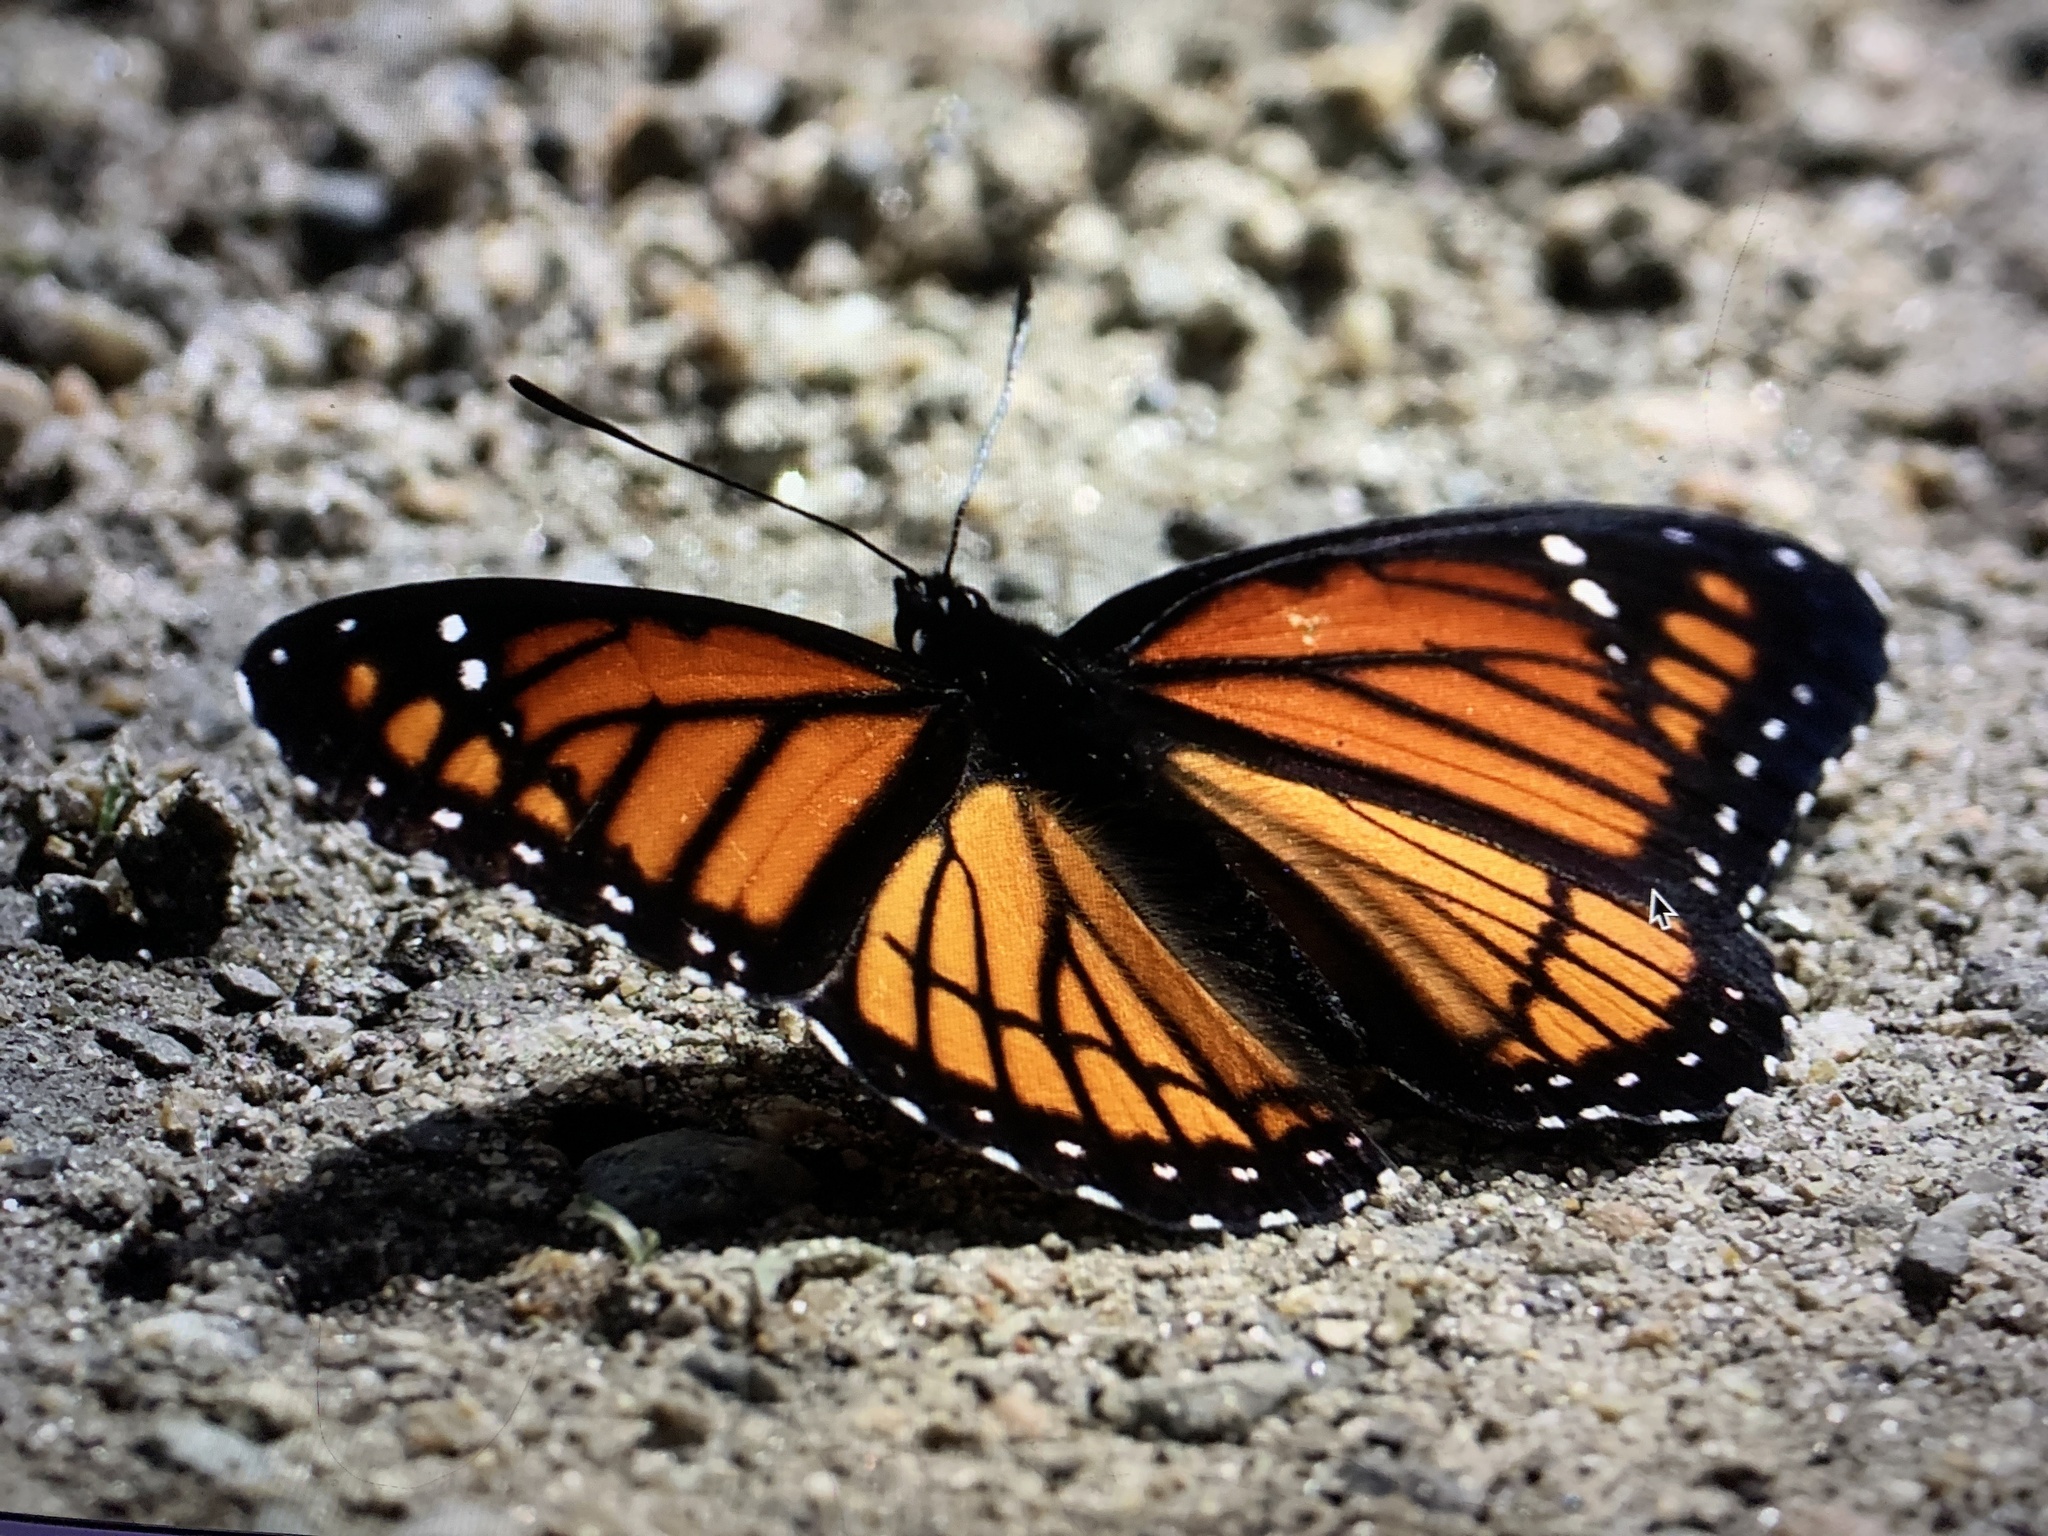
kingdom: Animalia
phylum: Arthropoda
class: Insecta
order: Lepidoptera
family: Nymphalidae
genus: Limenitis
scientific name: Limenitis archippus
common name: Viceroy
